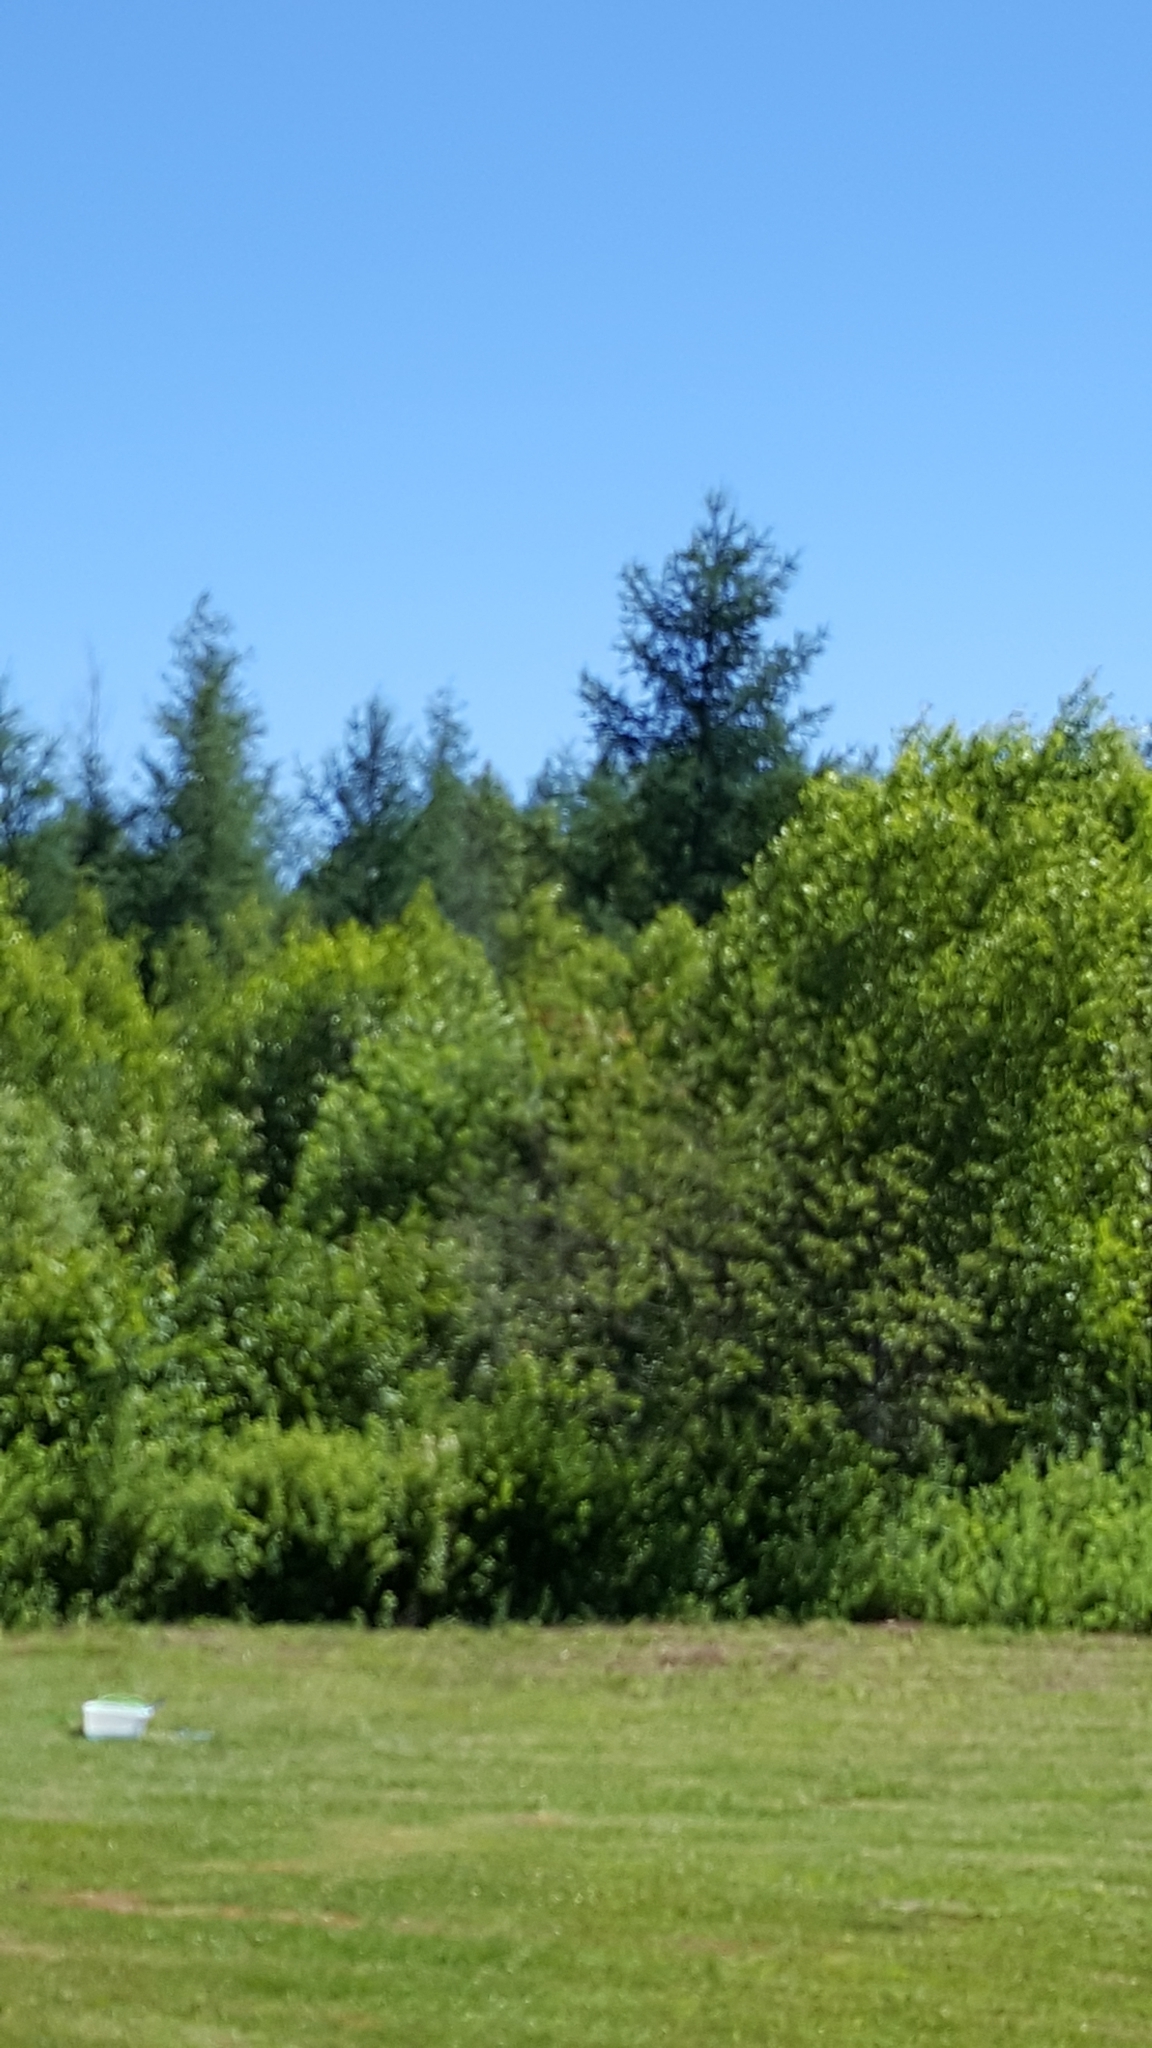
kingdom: Plantae
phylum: Tracheophyta
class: Pinopsida
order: Pinales
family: Pinaceae
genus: Larix
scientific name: Larix laricina
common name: American larch
